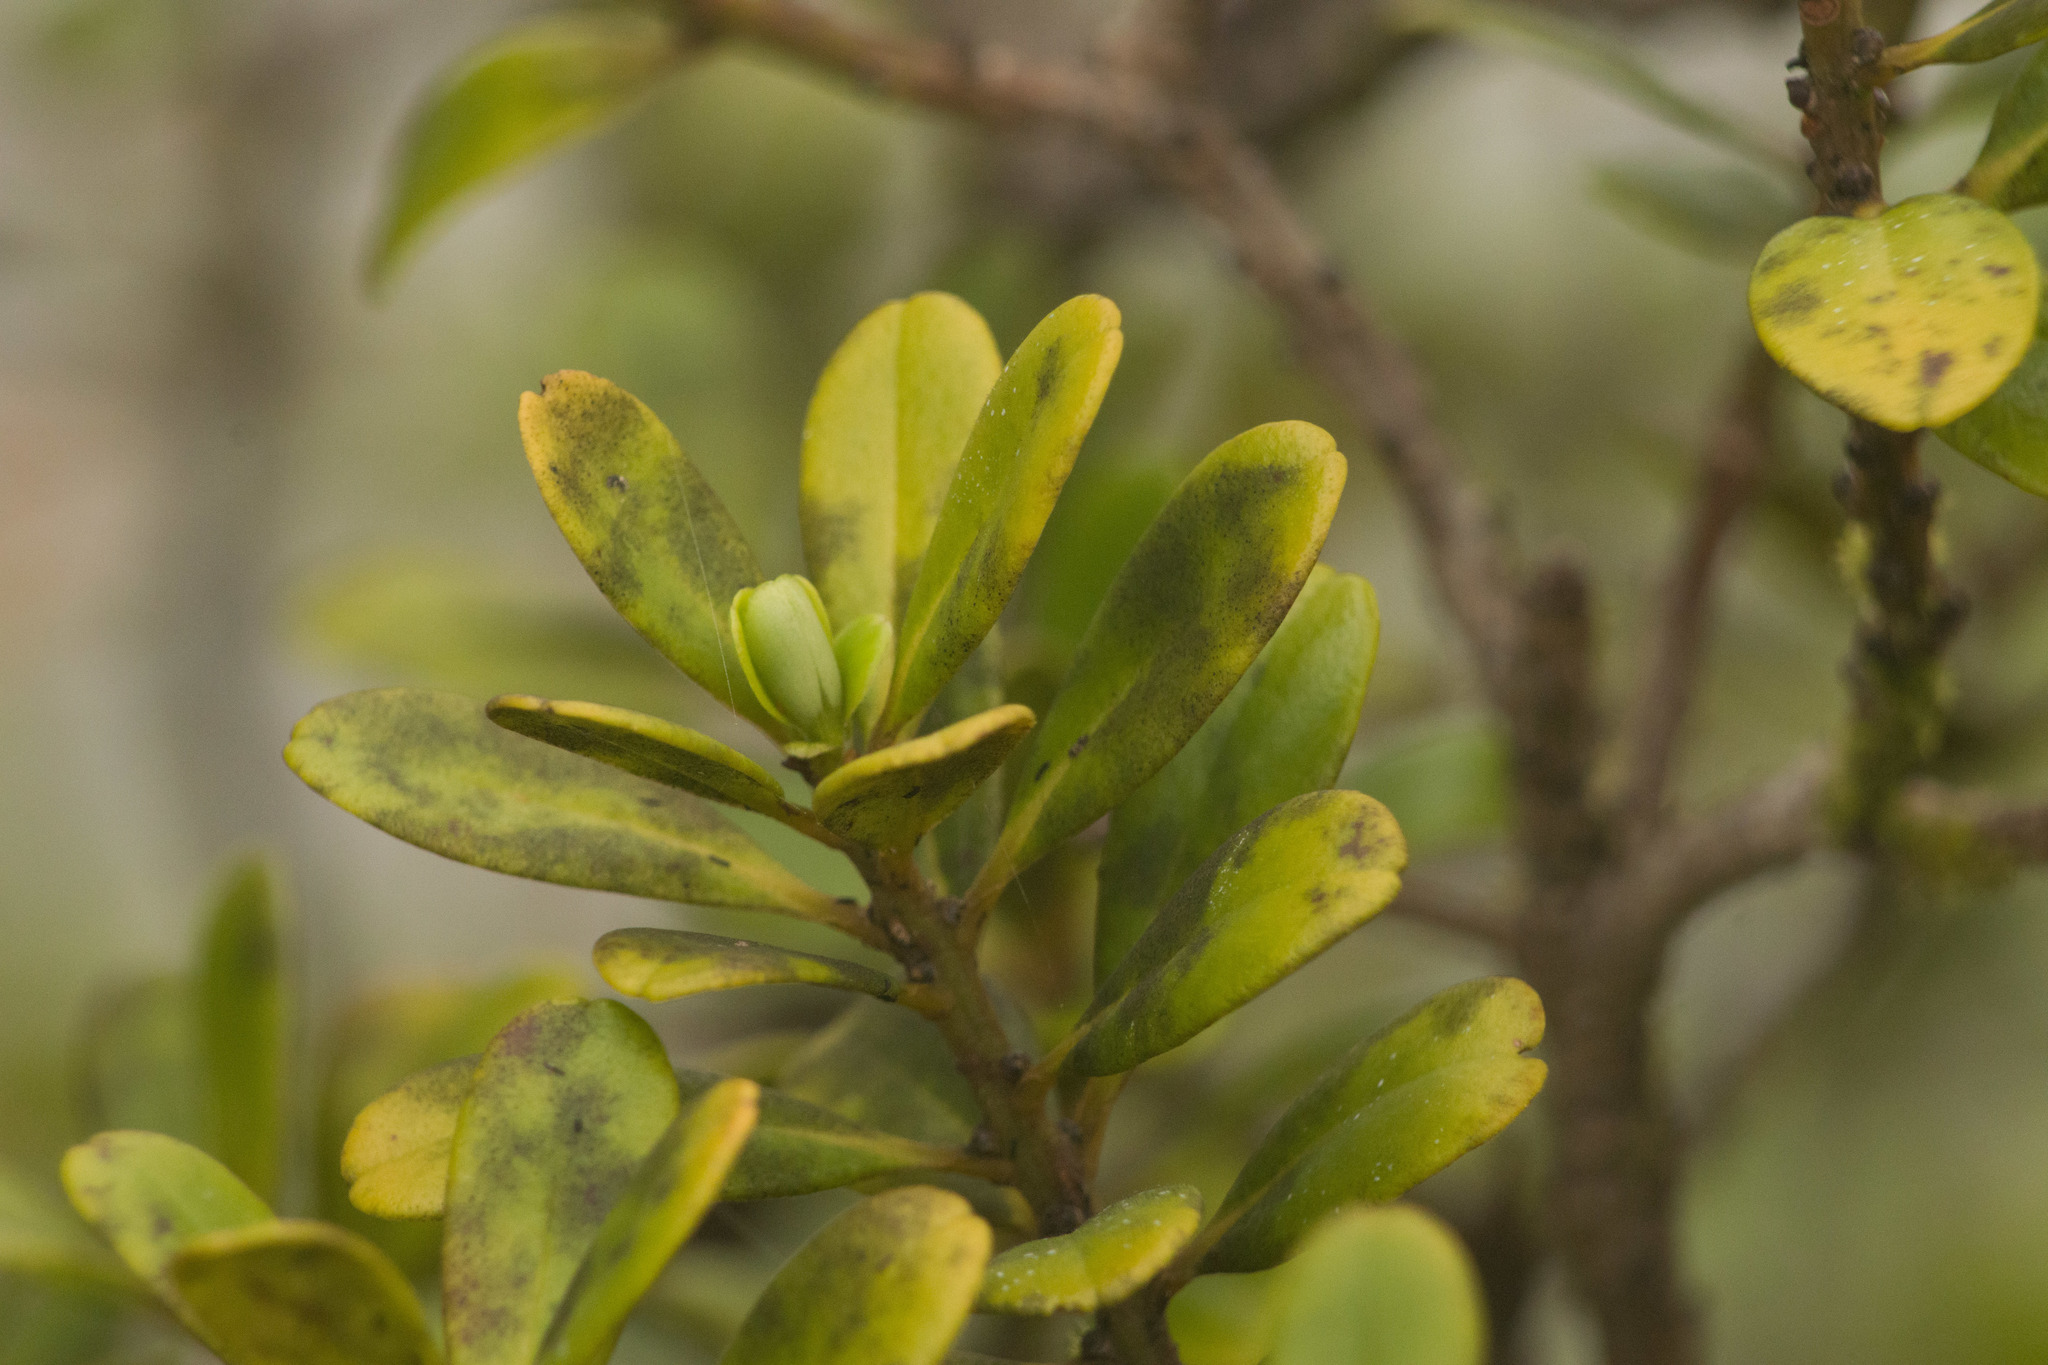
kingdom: Plantae
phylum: Tracheophyta
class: Magnoliopsida
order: Ericales
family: Primulaceae
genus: Myrsine
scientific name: Myrsine sandwicensis
